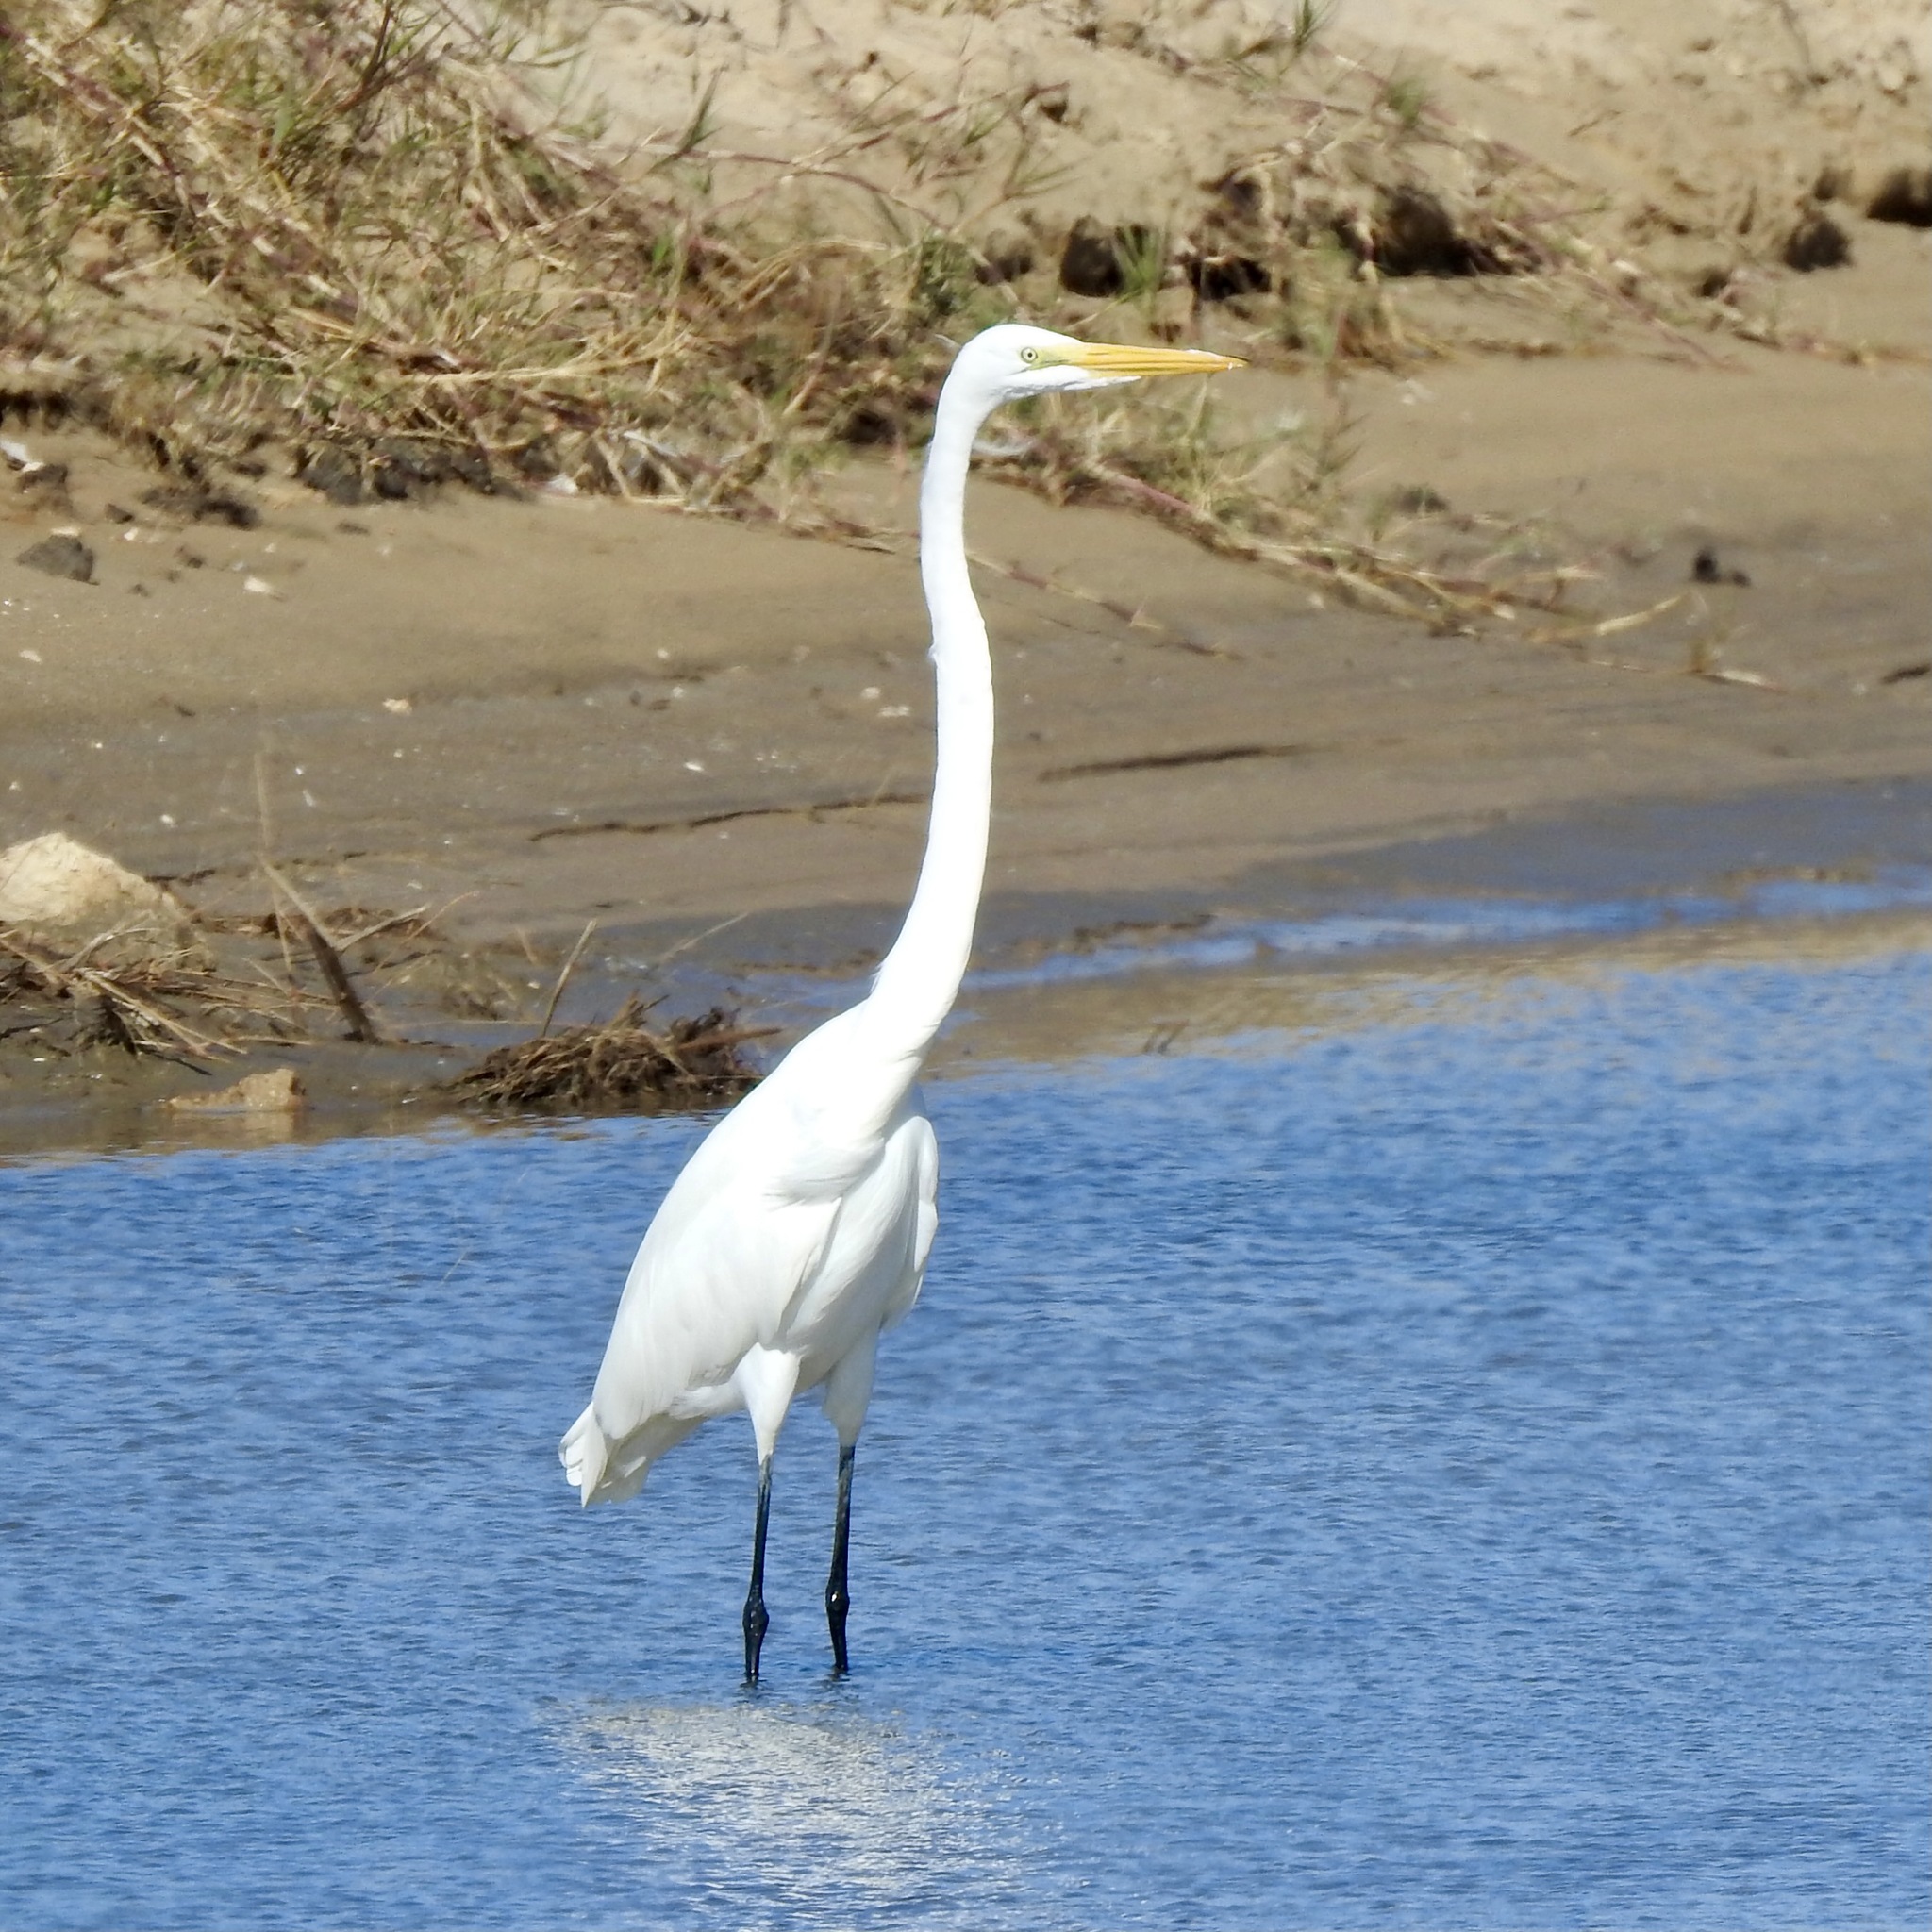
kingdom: Animalia
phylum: Chordata
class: Aves
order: Pelecaniformes
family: Ardeidae
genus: Ardea
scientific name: Ardea alba
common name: Great egret
